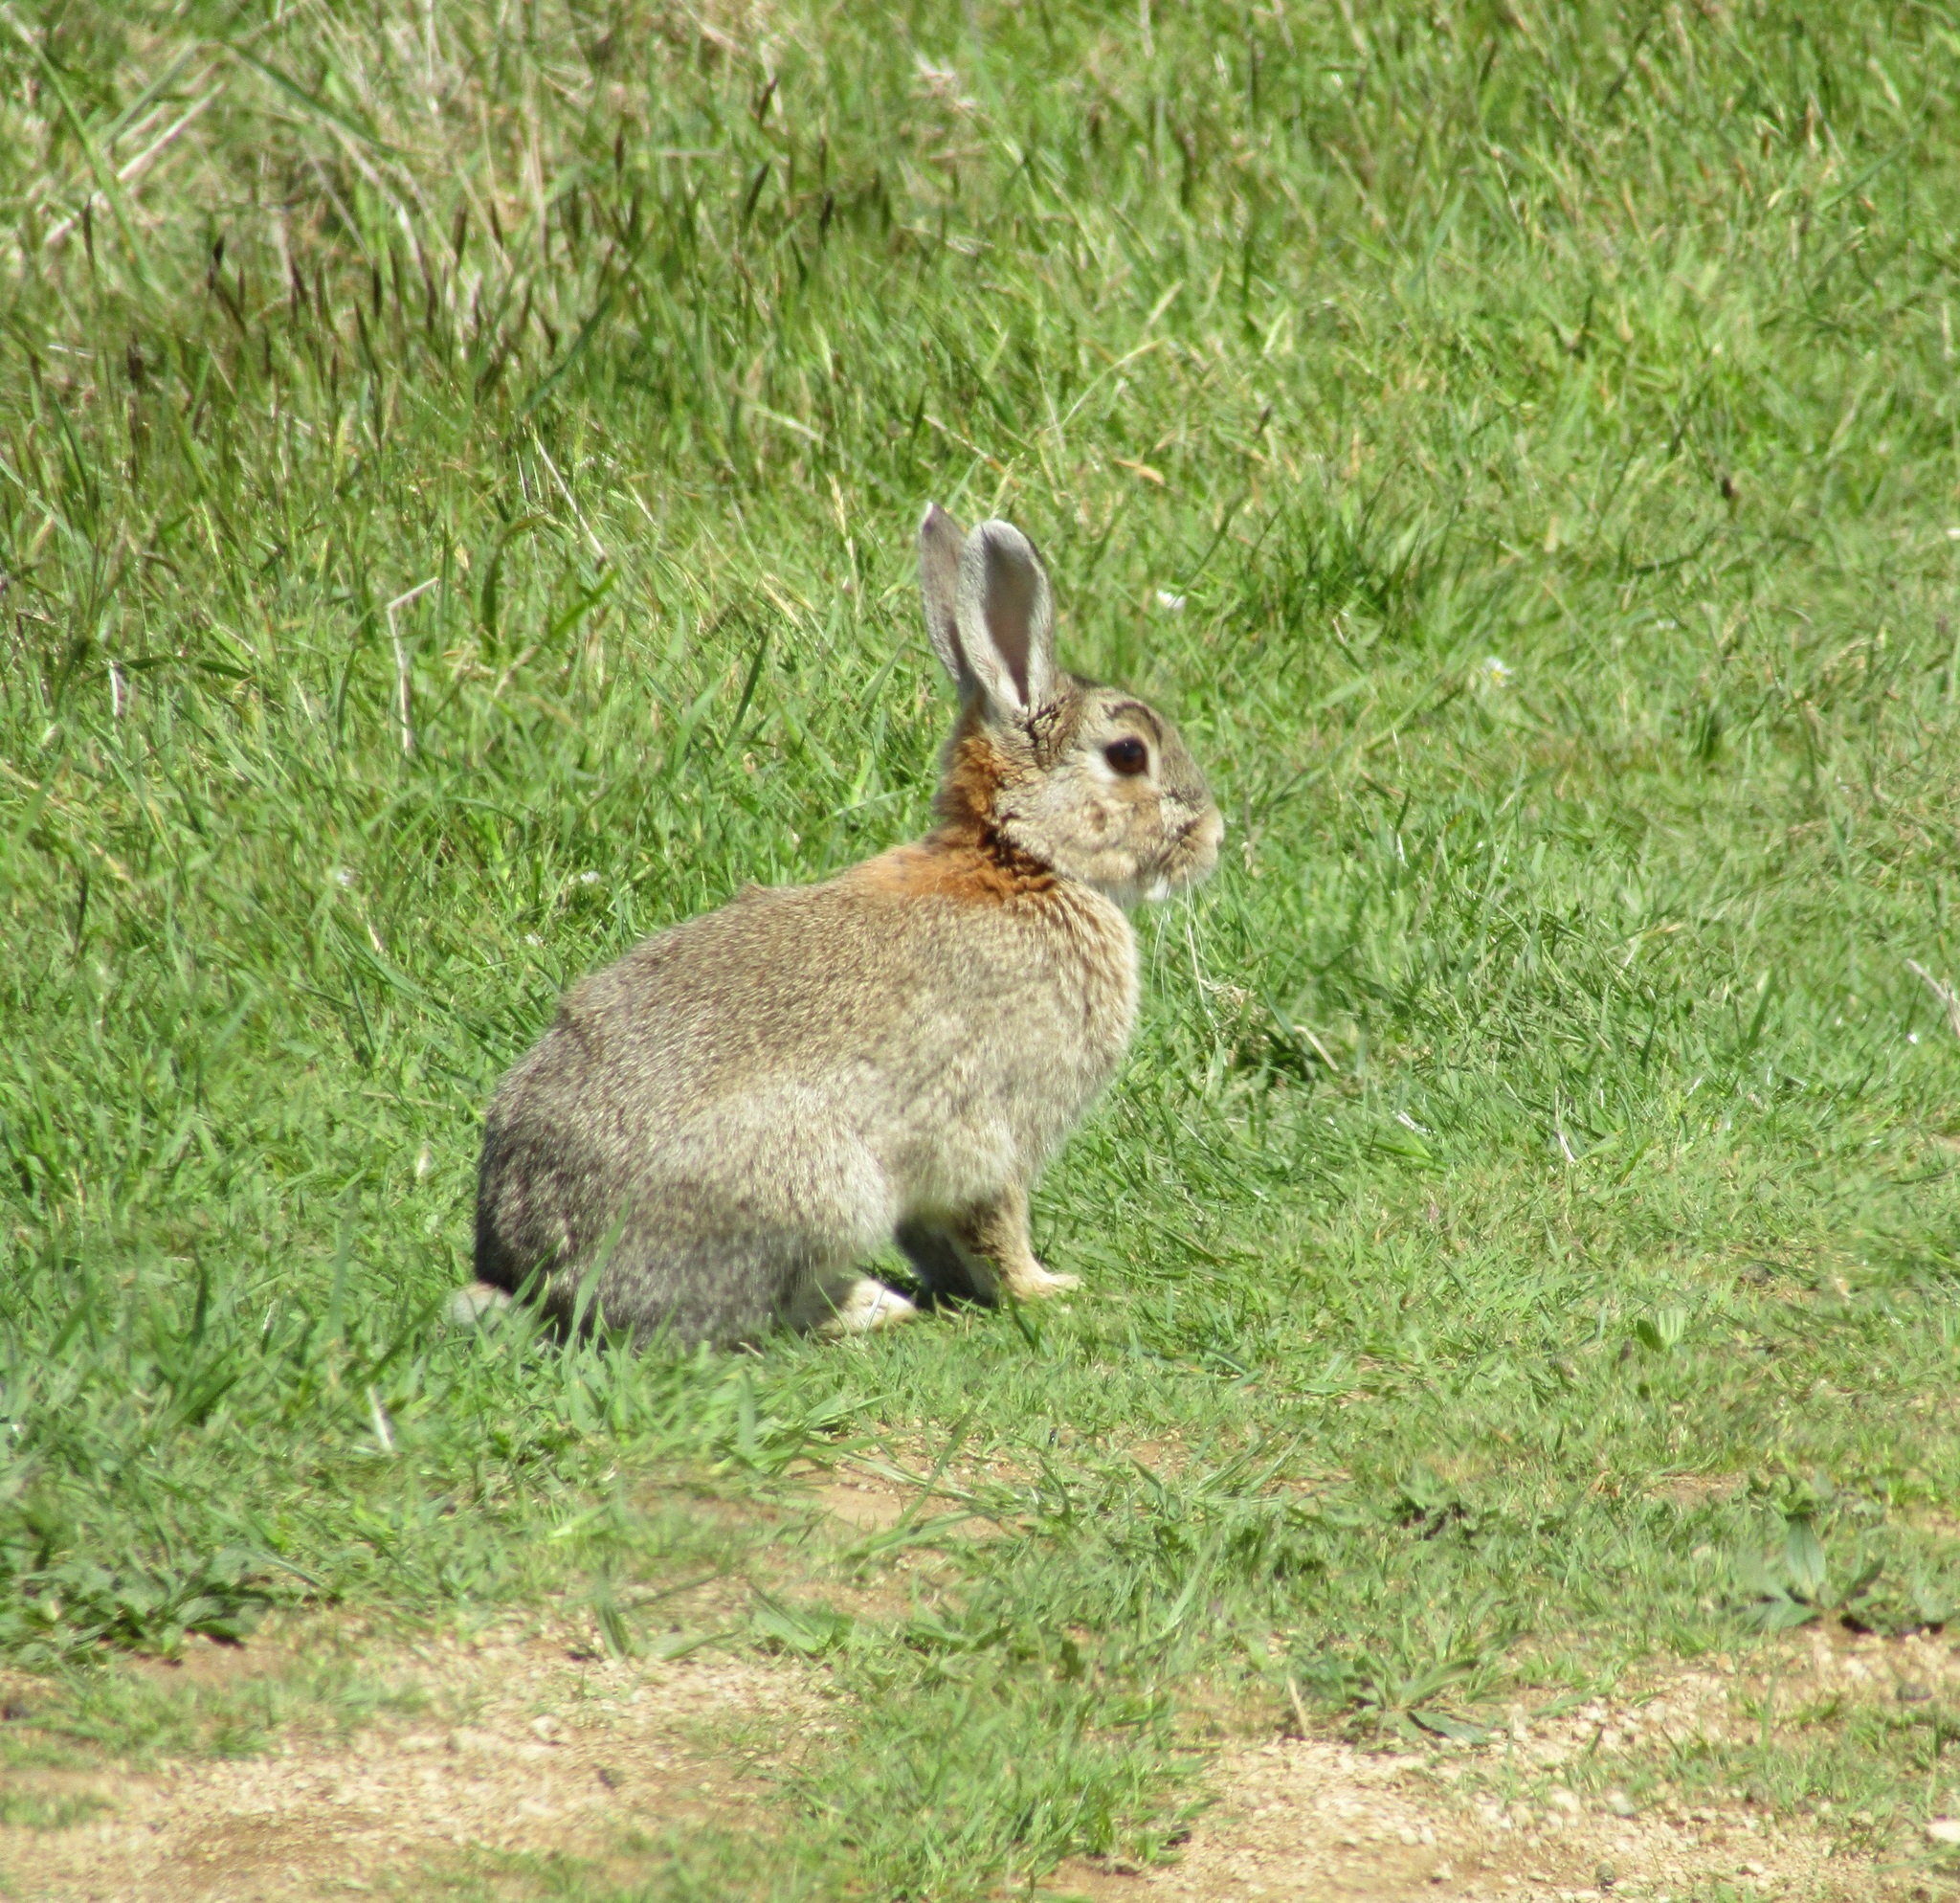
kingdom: Animalia
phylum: Chordata
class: Mammalia
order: Lagomorpha
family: Leporidae
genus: Oryctolagus
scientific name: Oryctolagus cuniculus
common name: European rabbit
